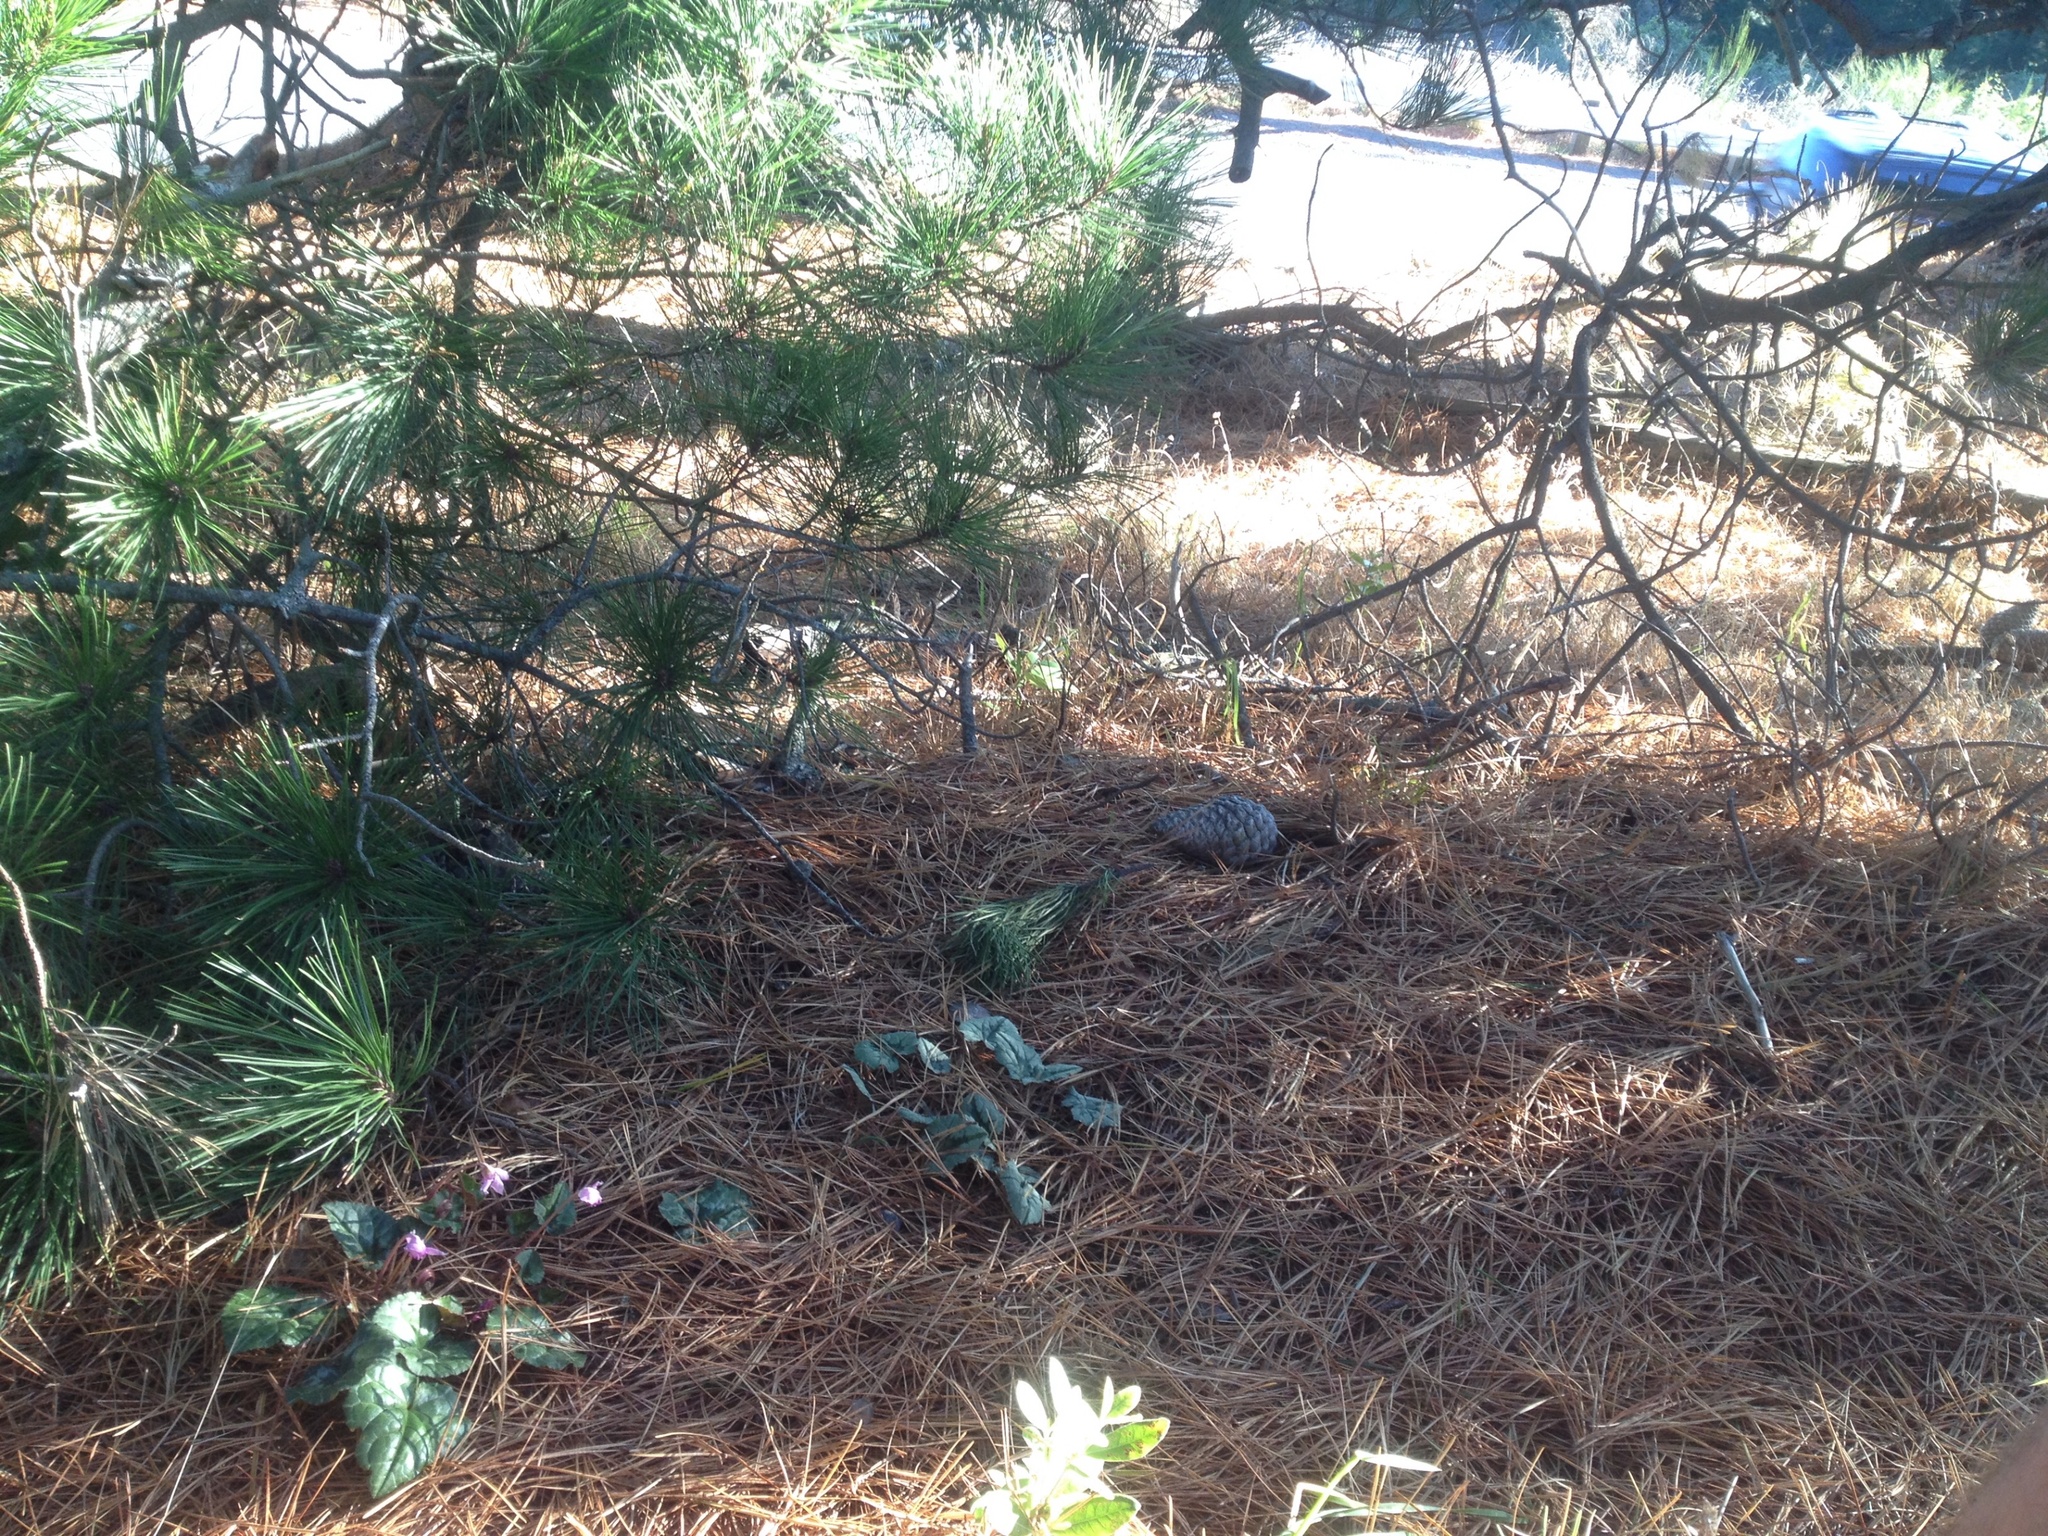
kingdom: Plantae
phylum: Tracheophyta
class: Magnoliopsida
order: Ericales
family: Primulaceae
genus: Cyclamen
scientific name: Cyclamen hederifolium
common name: Sowbread
